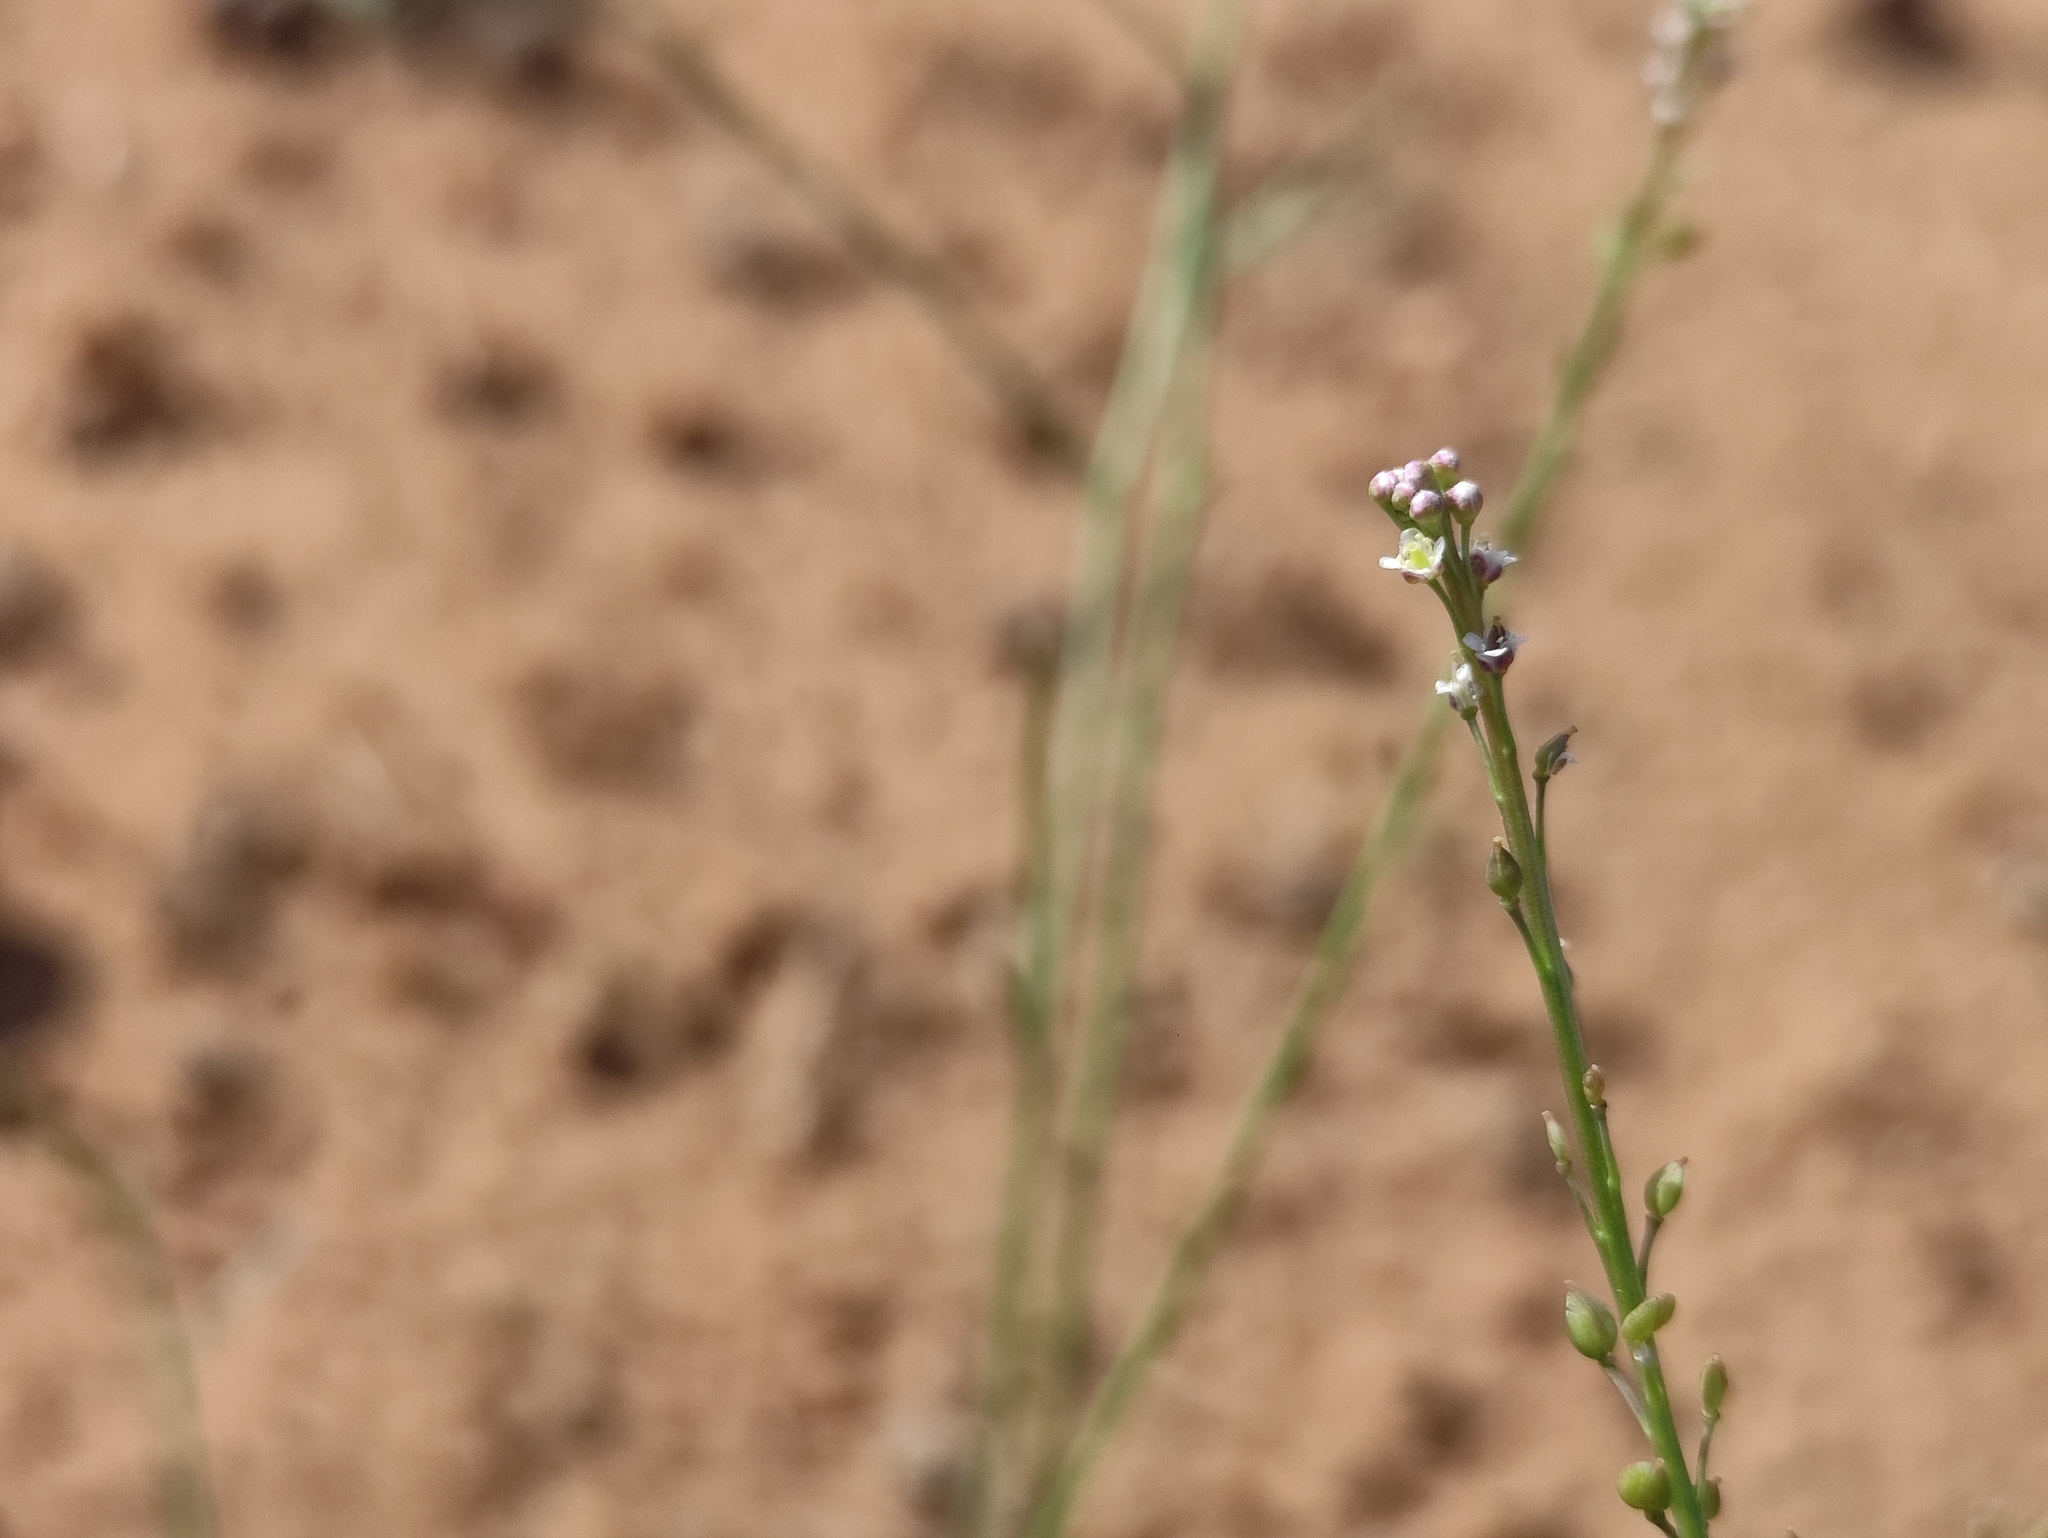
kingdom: Plantae
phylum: Tracheophyta
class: Magnoliopsida
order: Brassicales
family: Brassicaceae
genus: Lepidium
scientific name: Lepidium graminifolium
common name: Tall pepperwort
